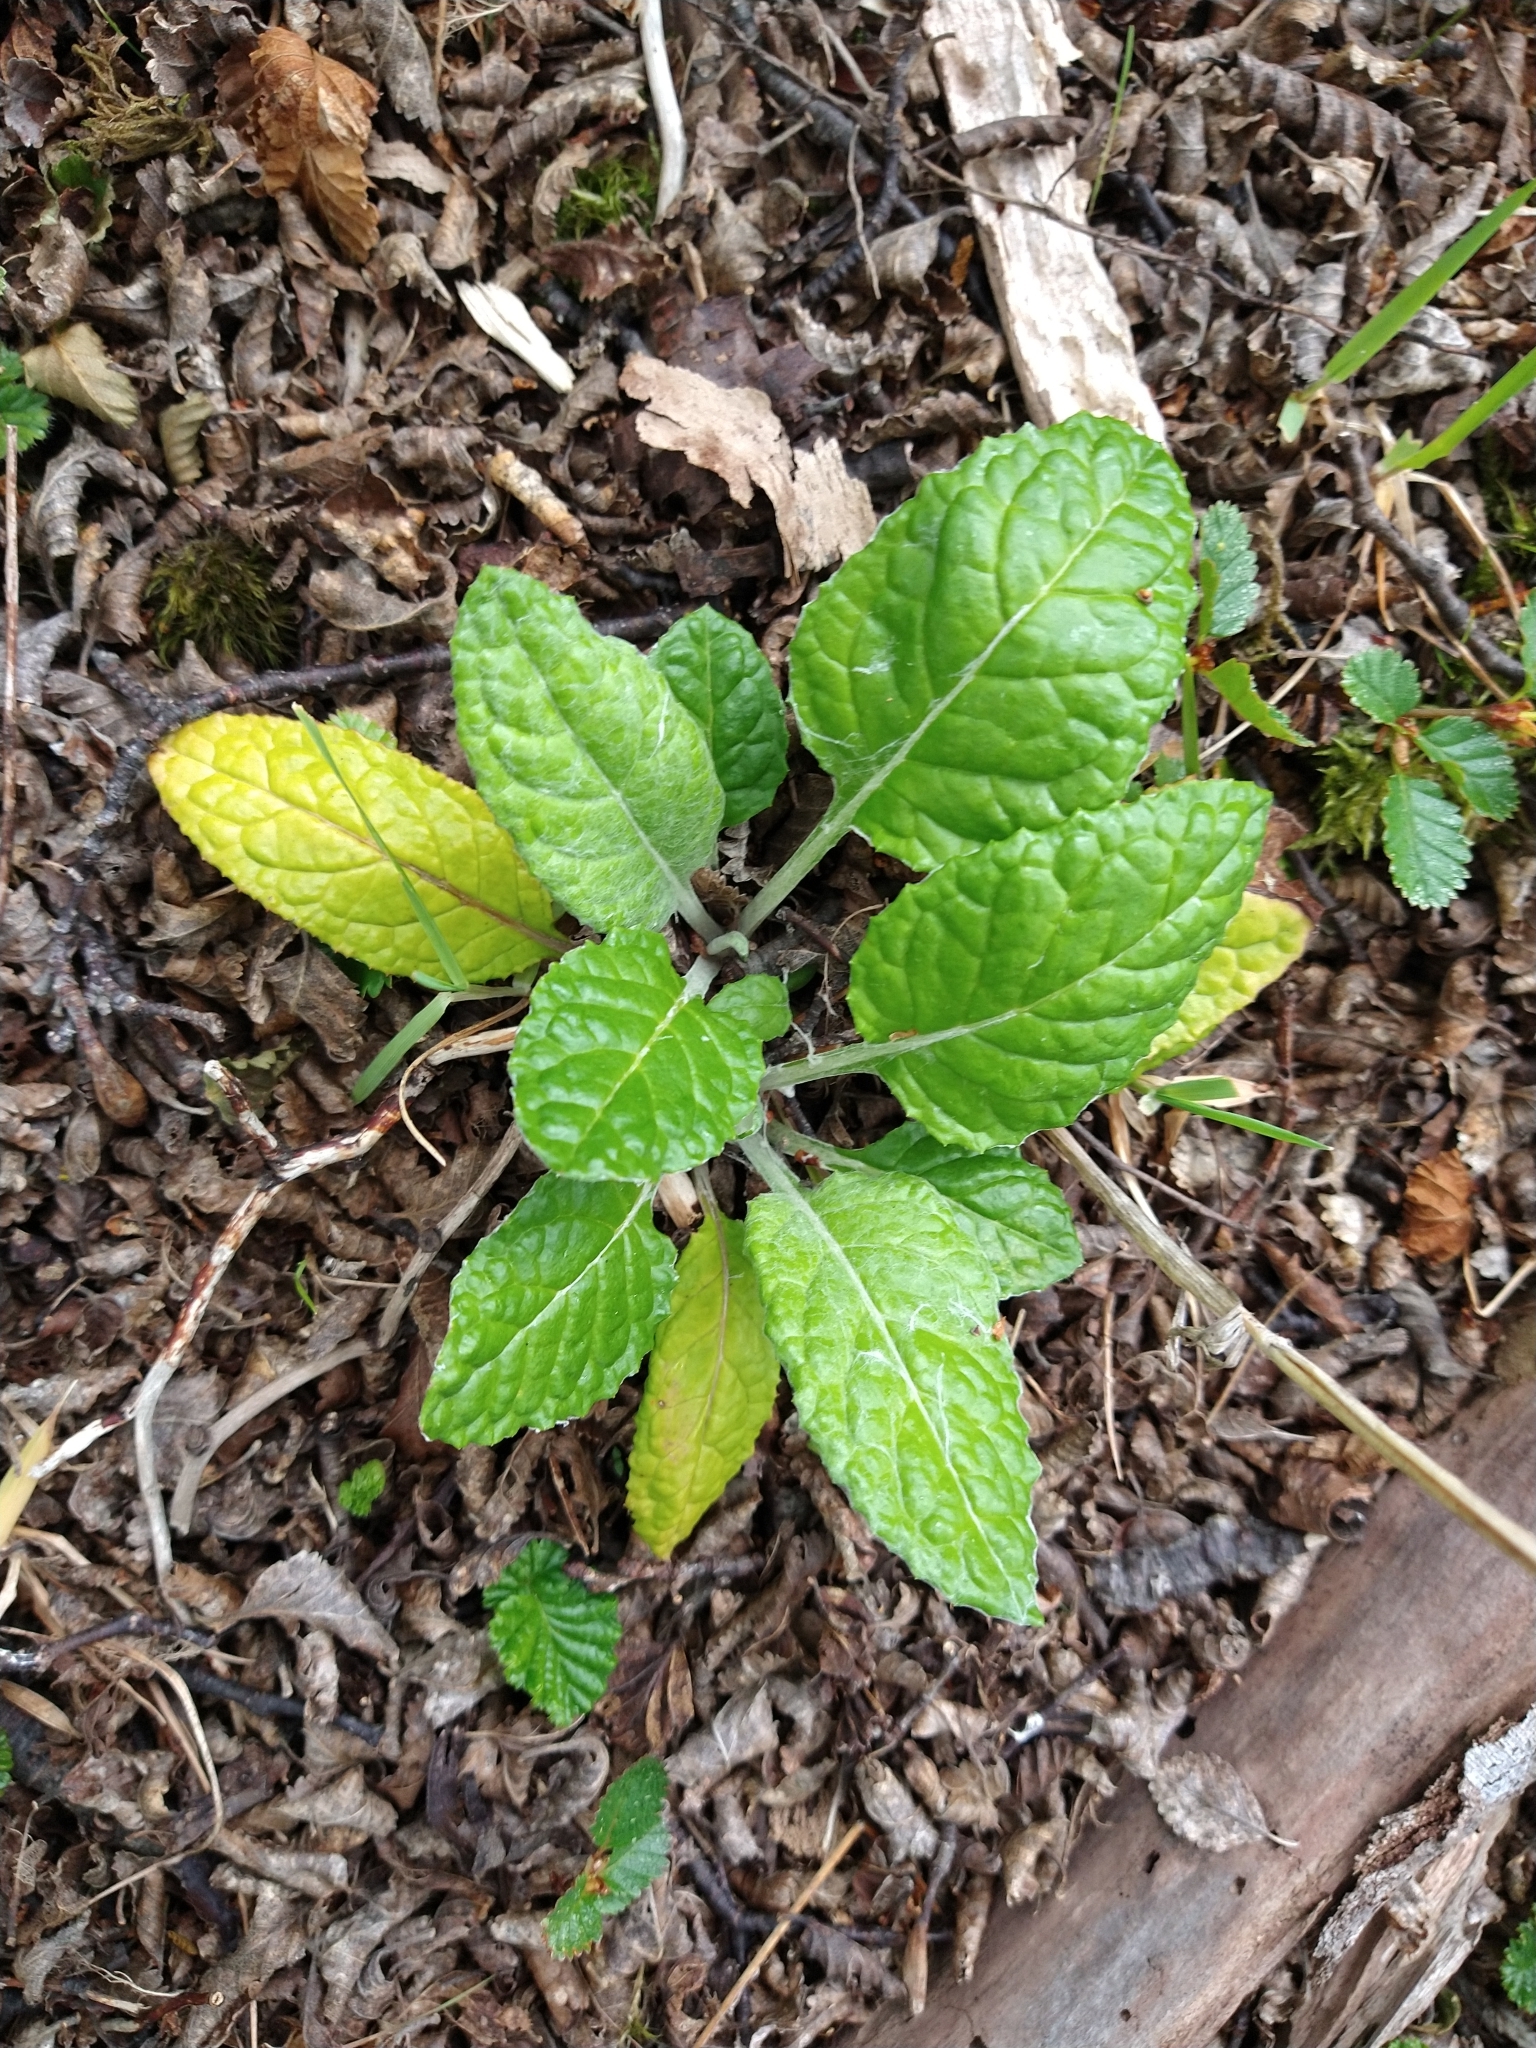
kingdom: Plantae
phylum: Tracheophyta
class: Magnoliopsida
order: Asterales
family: Asteraceae
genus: Adenocaulon
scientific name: Adenocaulon chilense
